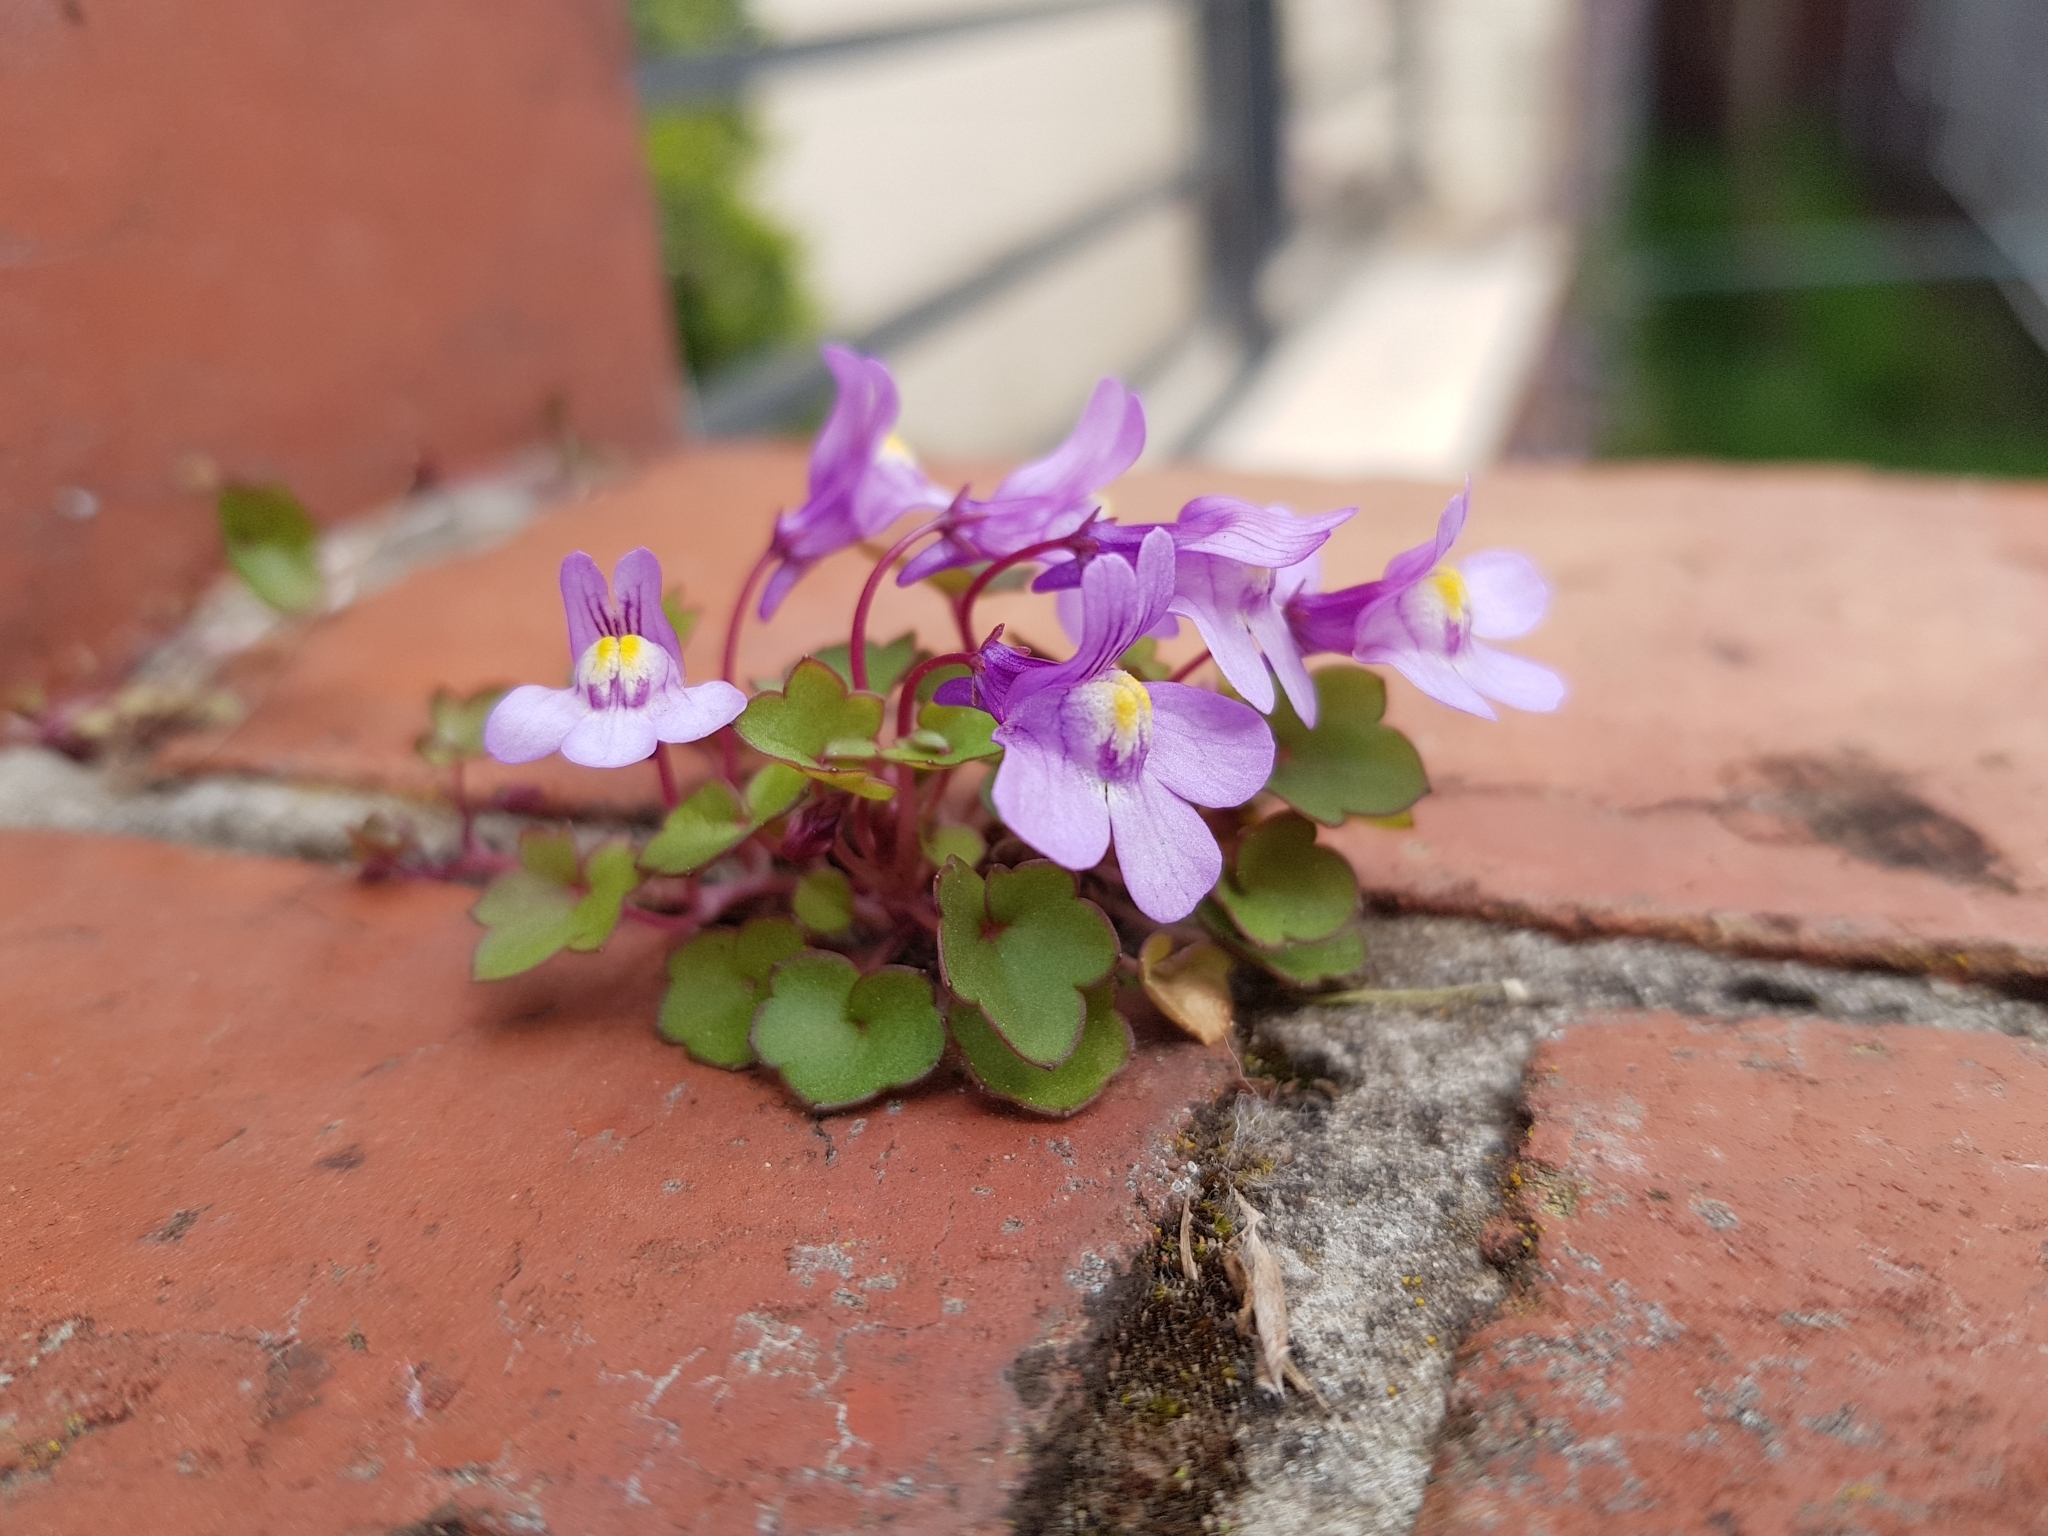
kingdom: Plantae
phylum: Tracheophyta
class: Magnoliopsida
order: Lamiales
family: Plantaginaceae
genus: Cymbalaria
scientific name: Cymbalaria muralis
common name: Ivy-leaved toadflax
